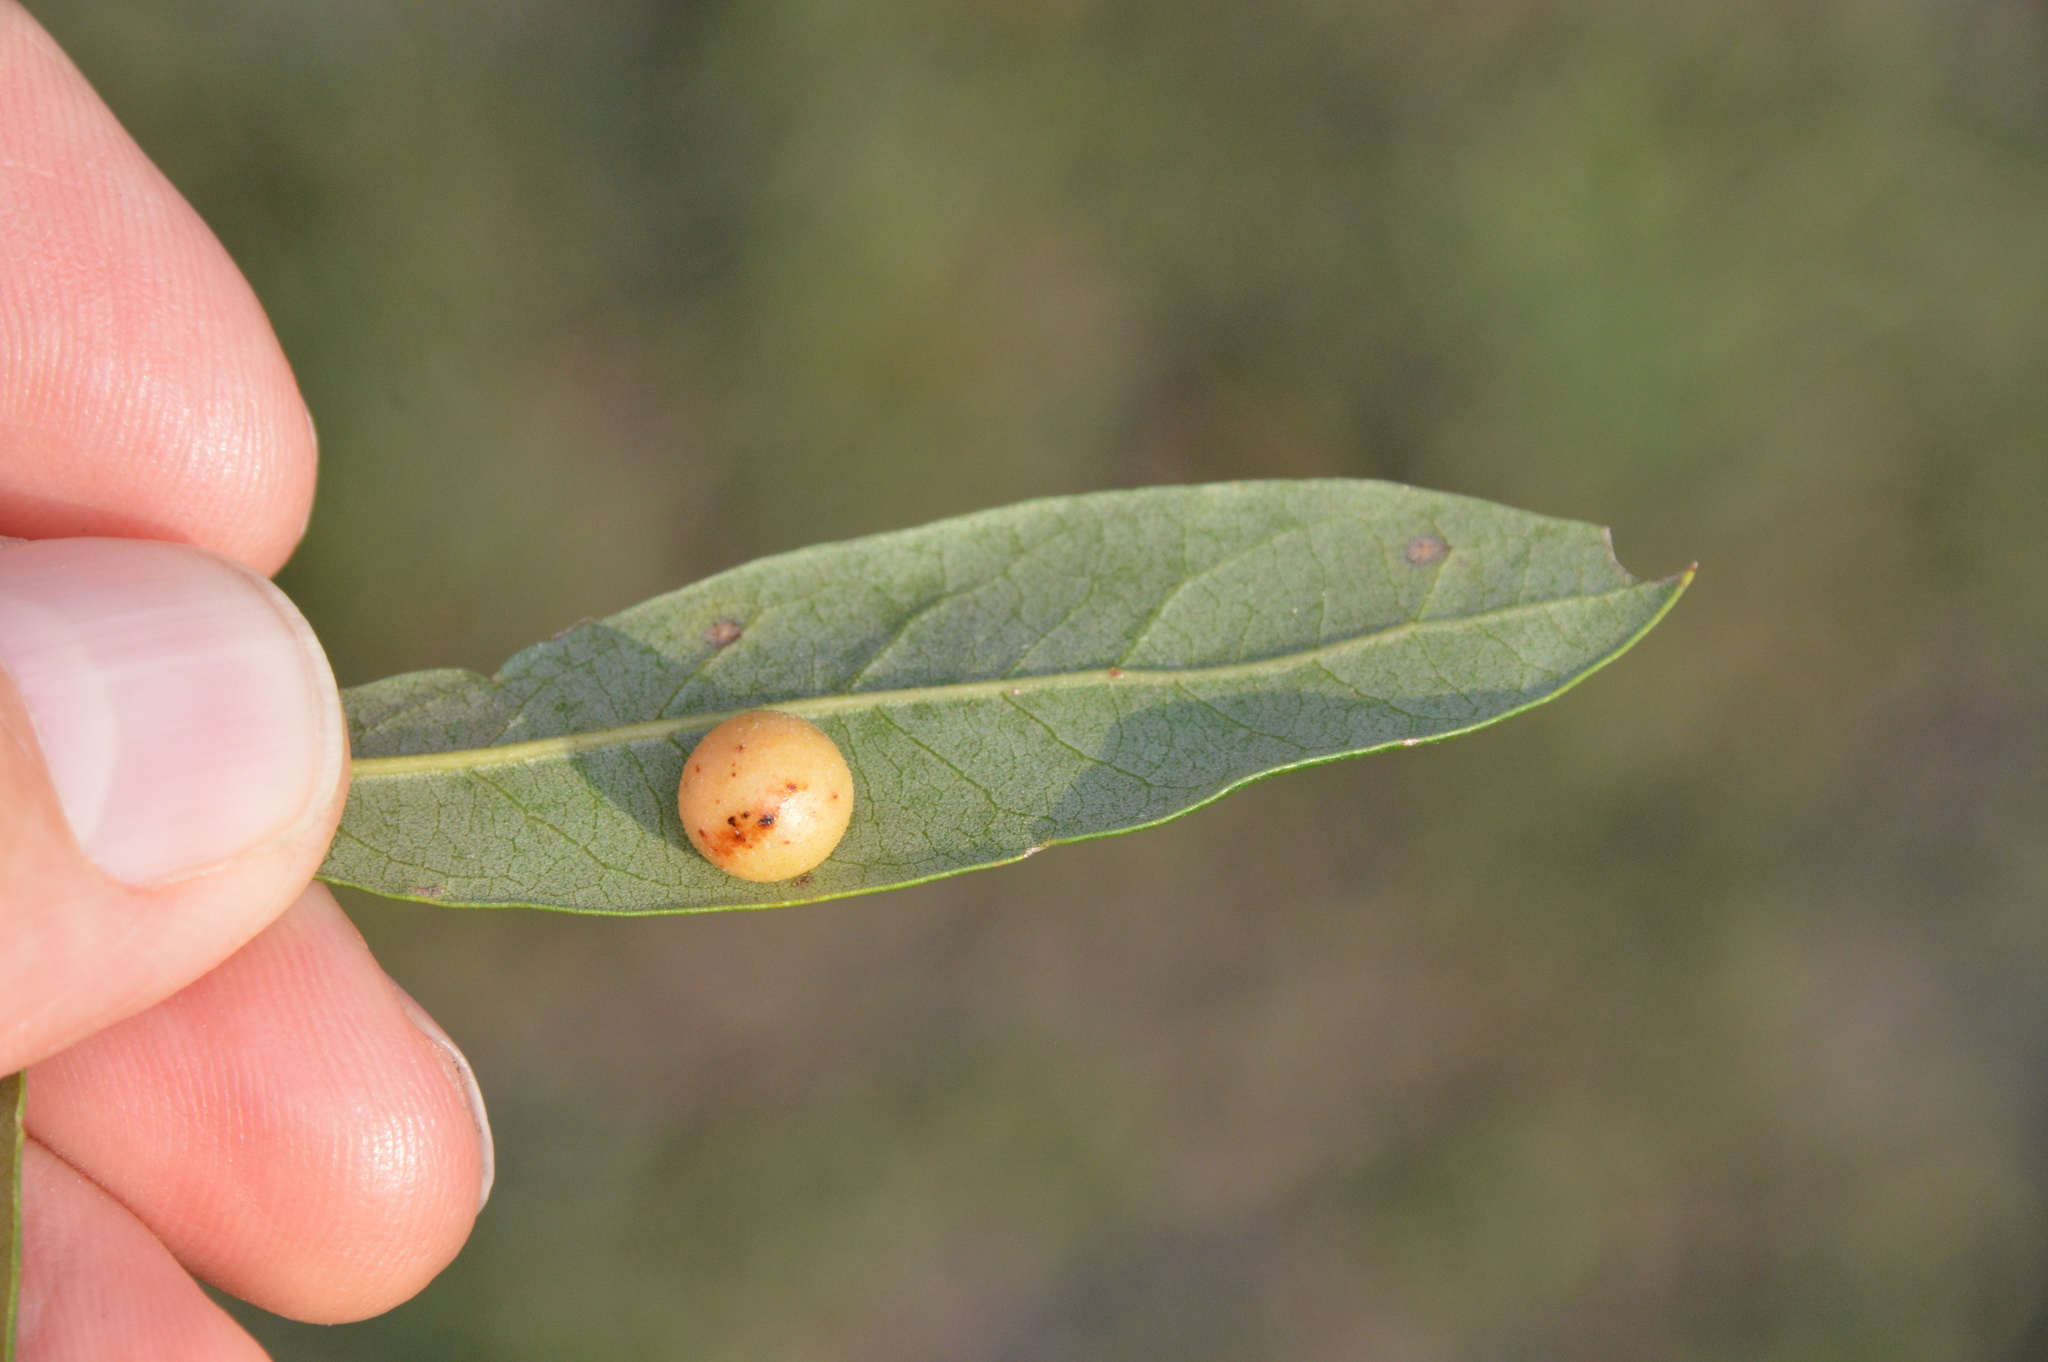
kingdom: Animalia
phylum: Arthropoda
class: Insecta
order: Hymenoptera
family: Cynipidae
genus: Belonocnema
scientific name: Belonocnema kinseyi
